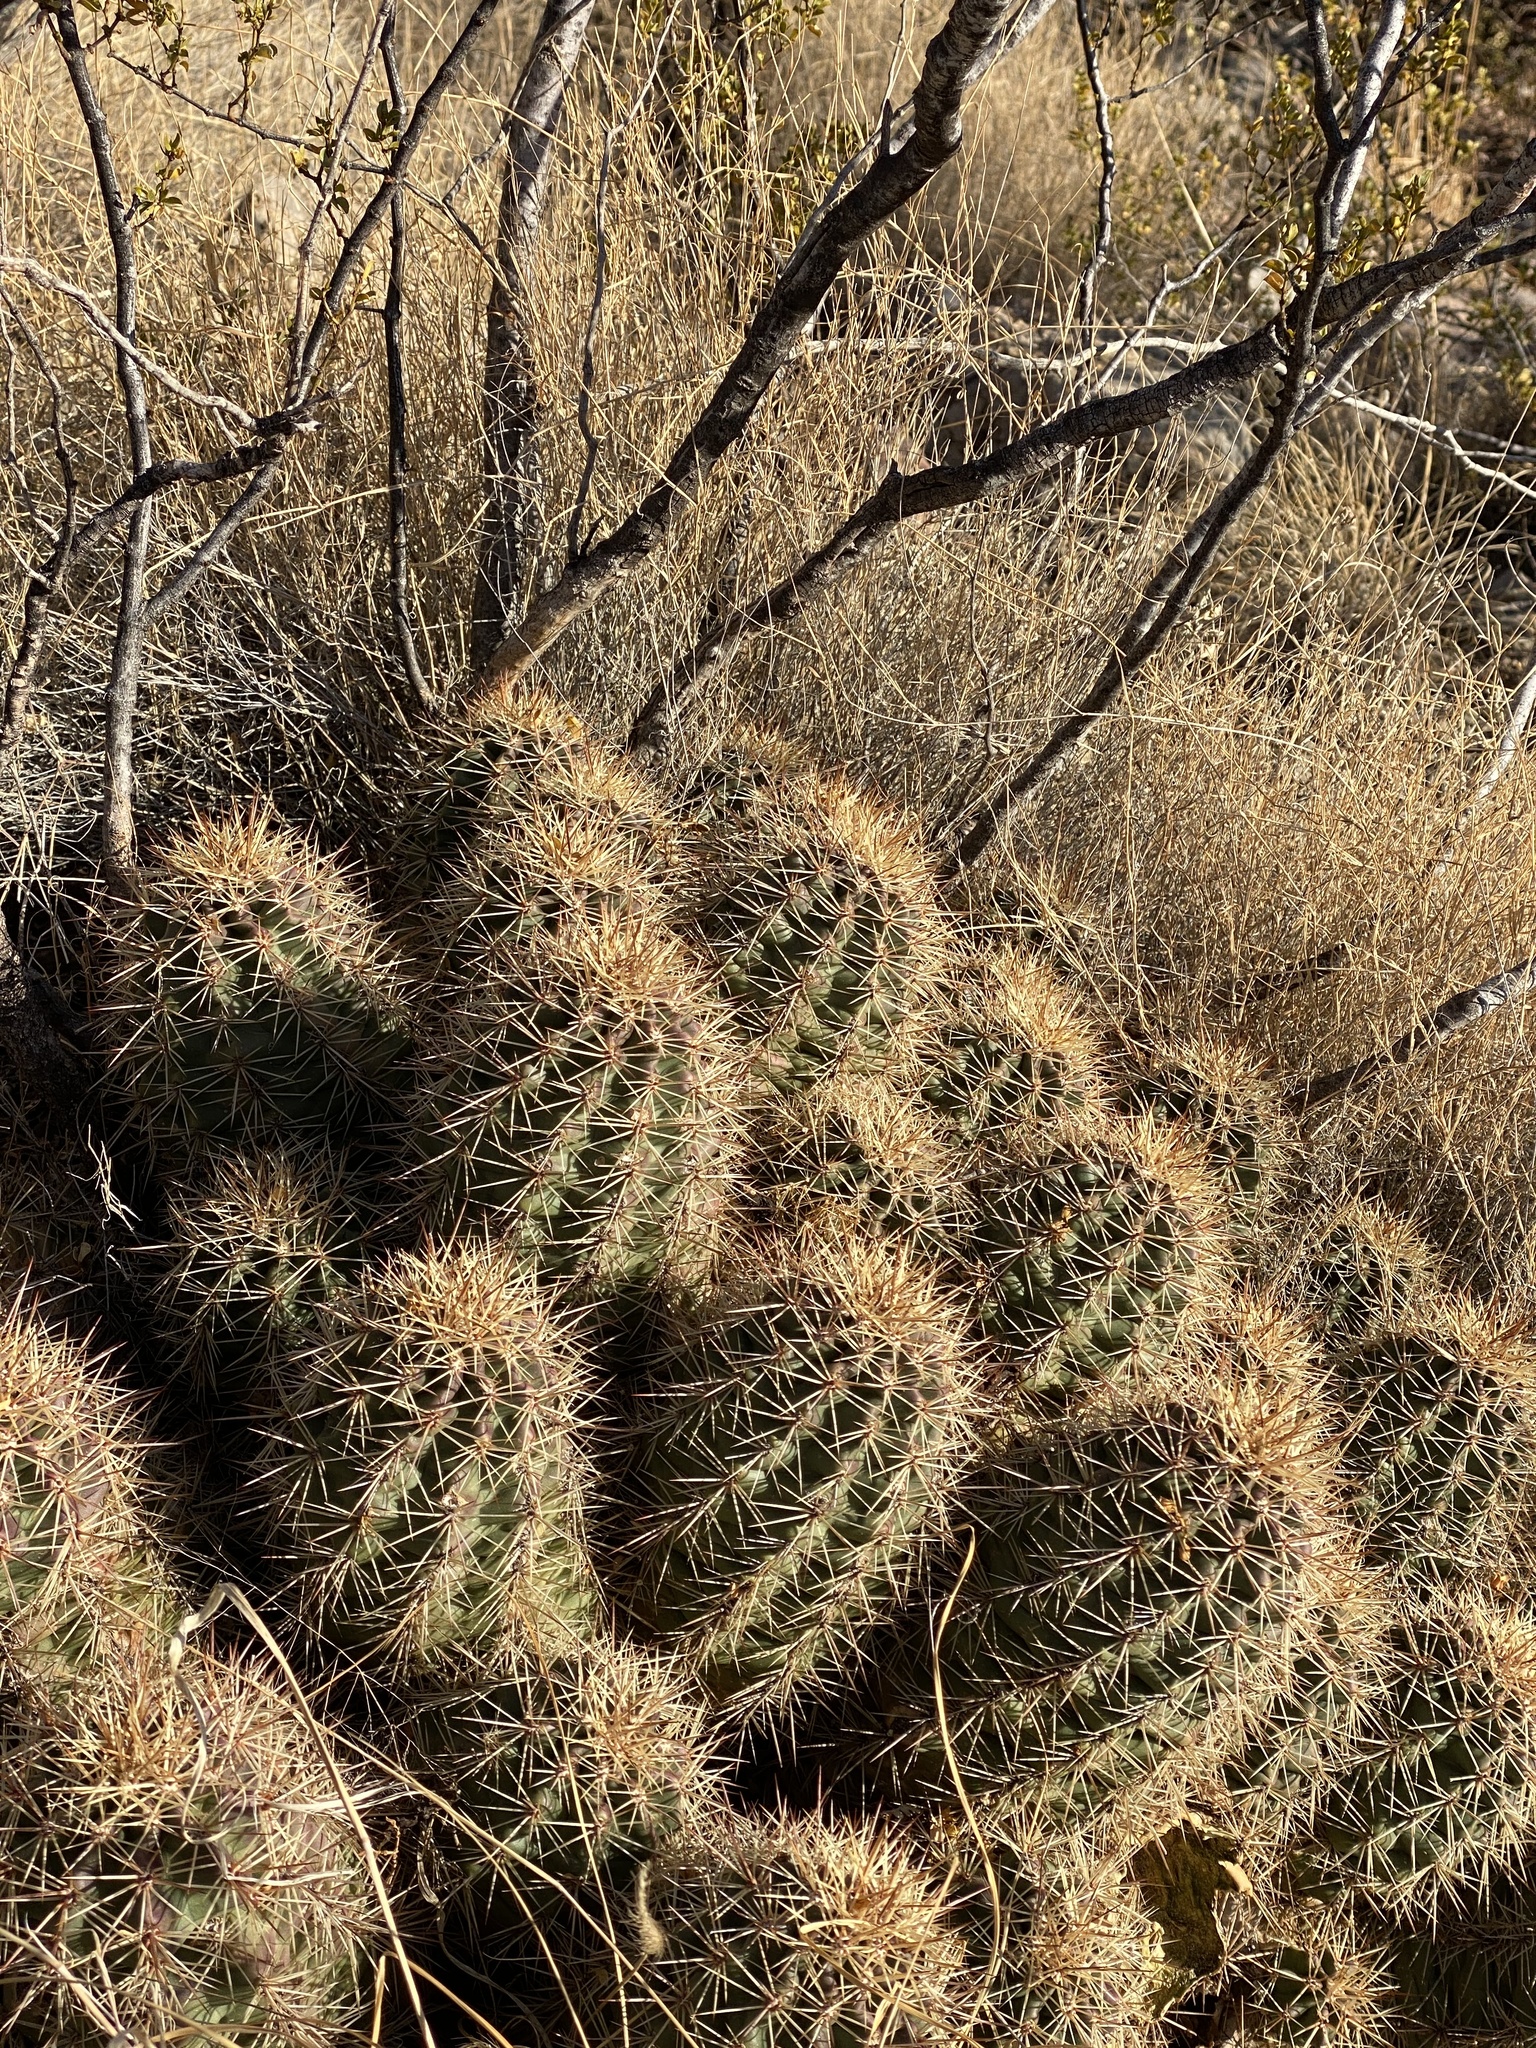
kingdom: Plantae
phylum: Tracheophyta
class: Magnoliopsida
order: Caryophyllales
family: Cactaceae
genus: Echinocereus
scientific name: Echinocereus coccineus
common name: Scarlet hedgehog cactus
